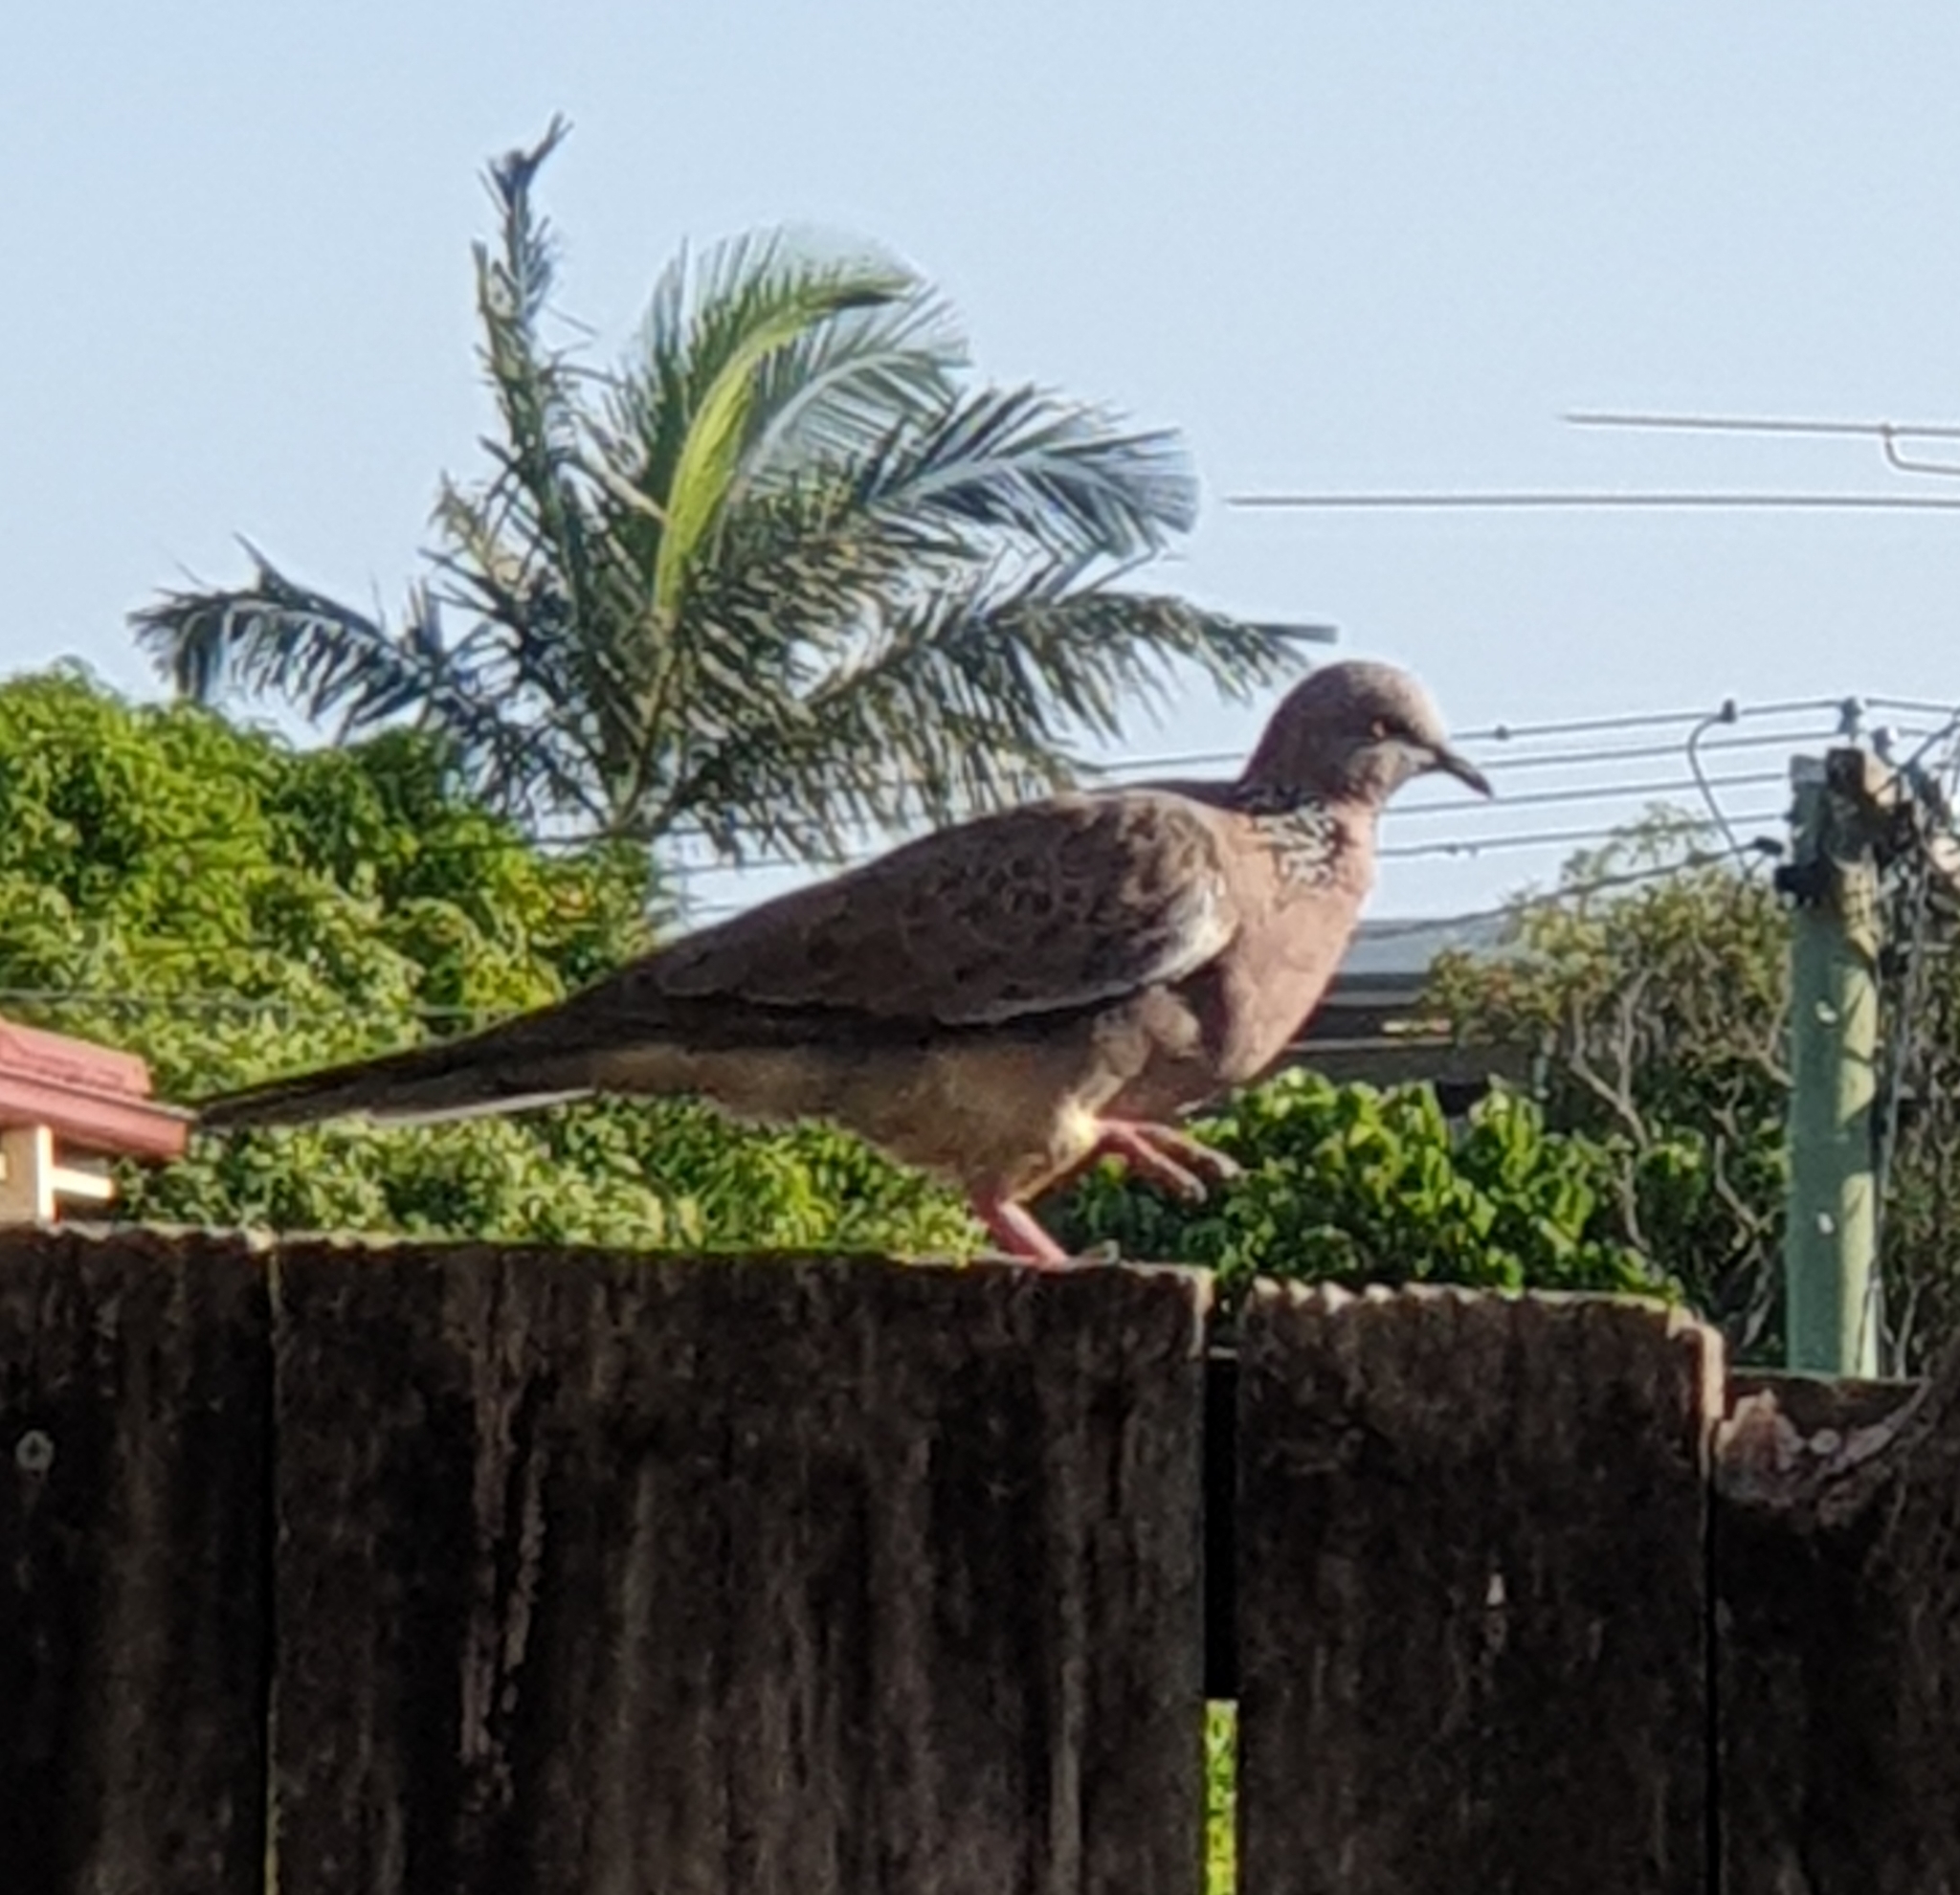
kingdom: Animalia
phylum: Chordata
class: Aves
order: Columbiformes
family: Columbidae
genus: Spilopelia
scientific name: Spilopelia chinensis
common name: Spotted dove
